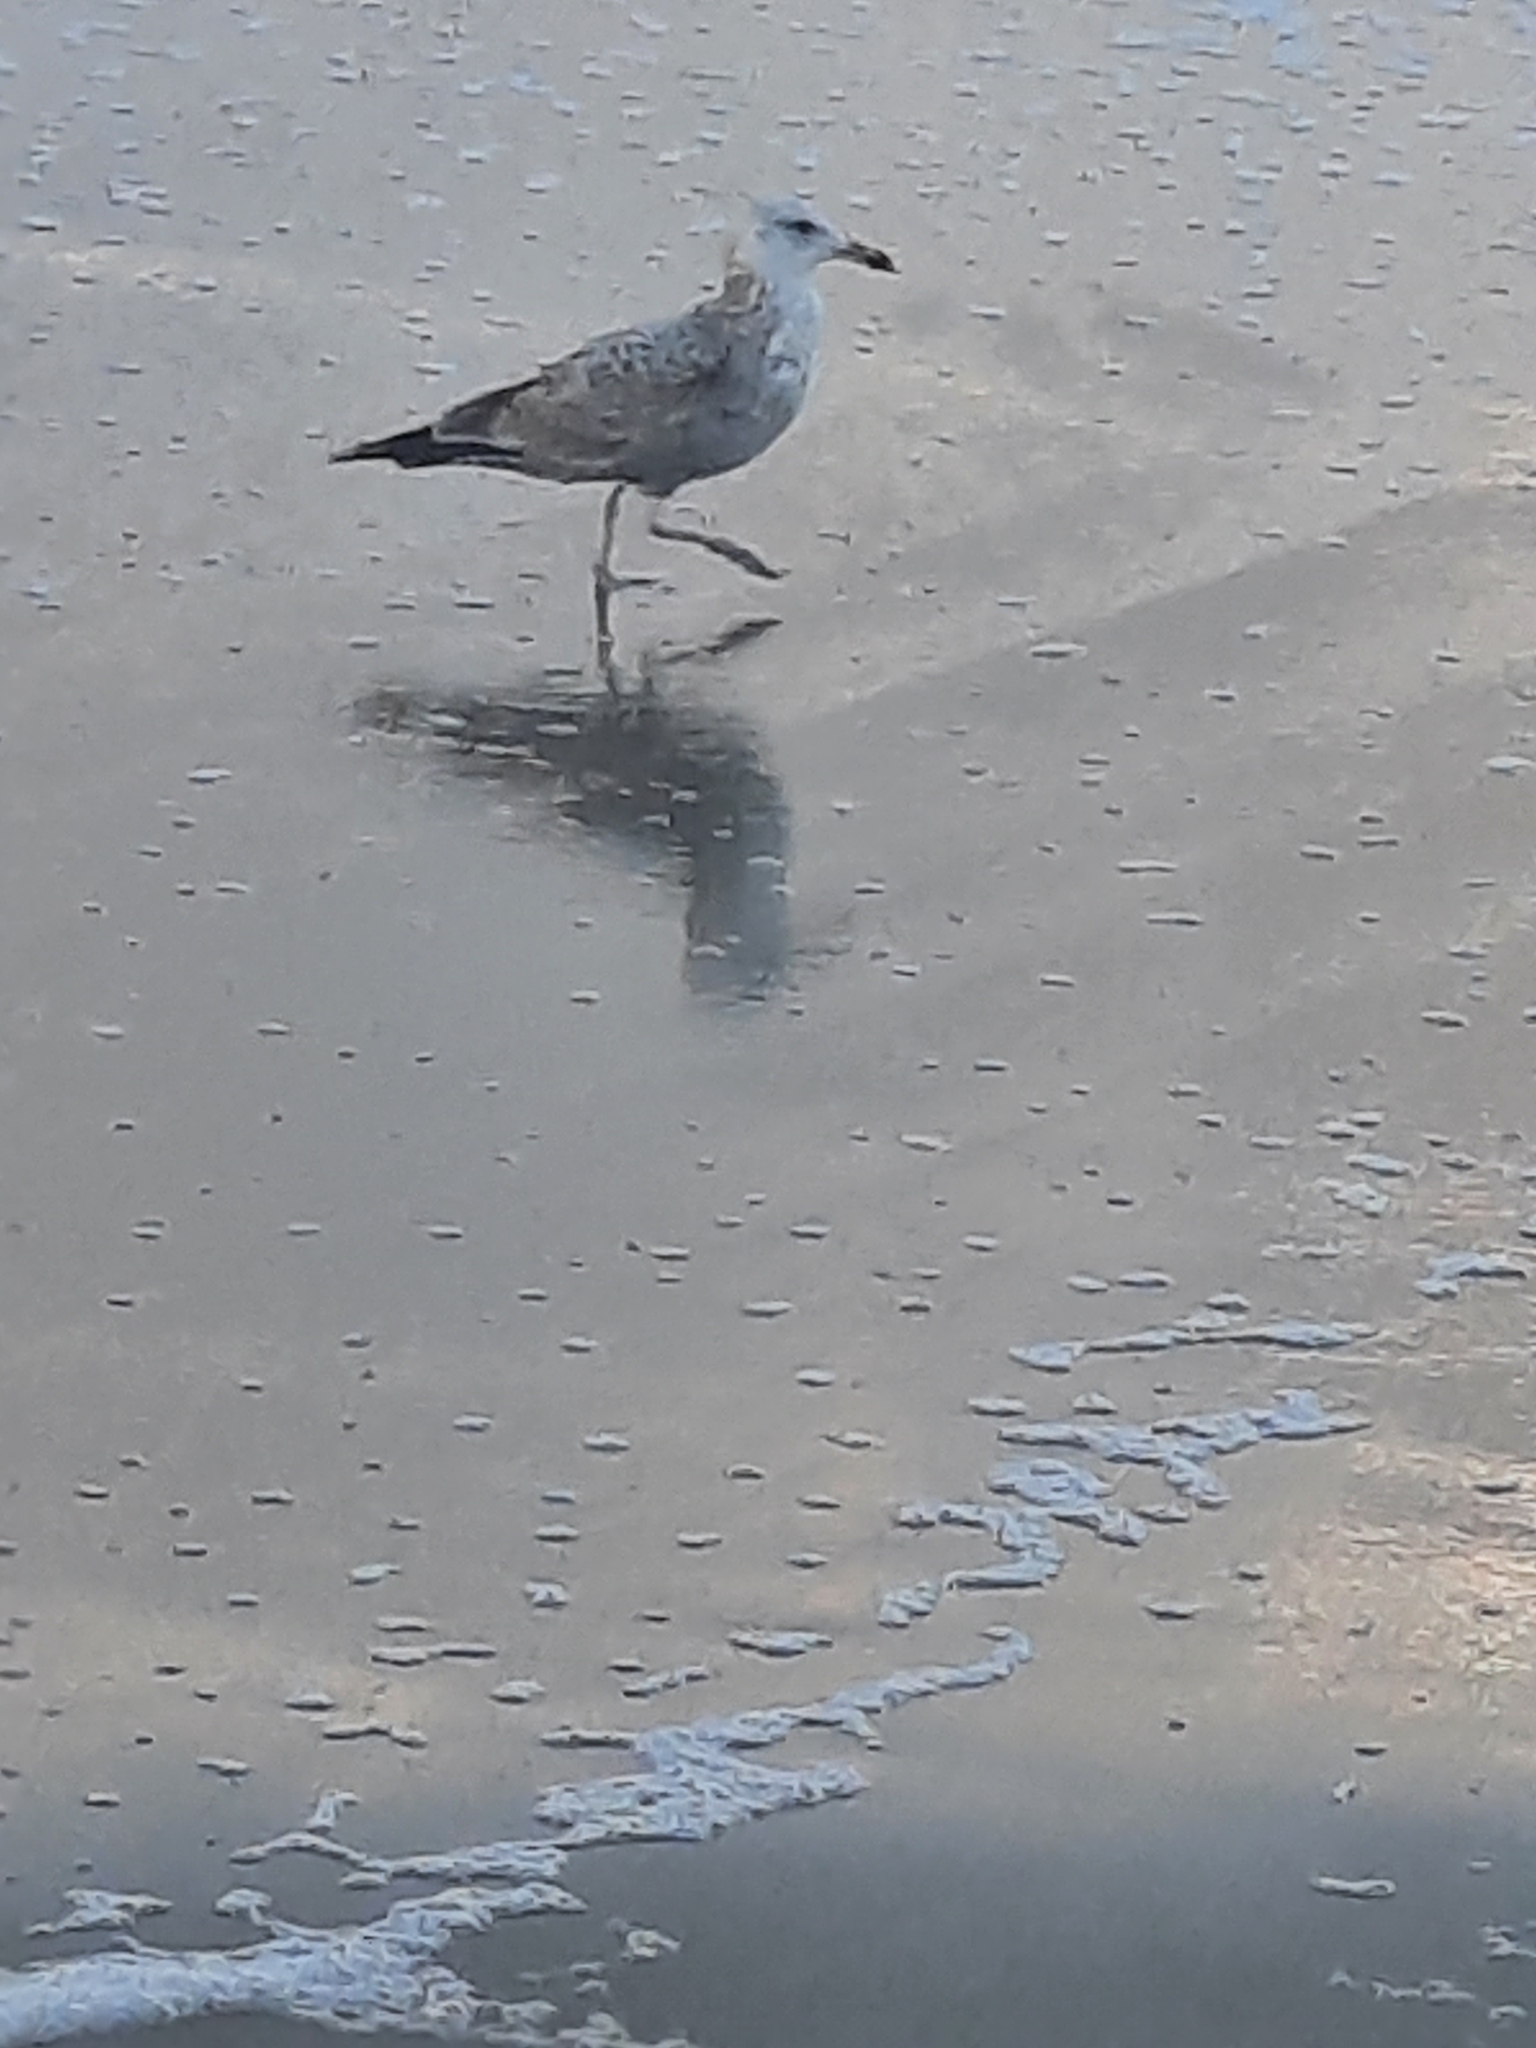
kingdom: Animalia
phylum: Chordata
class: Aves
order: Charadriiformes
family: Laridae
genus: Larus
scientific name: Larus argentatus
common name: Herring gull
